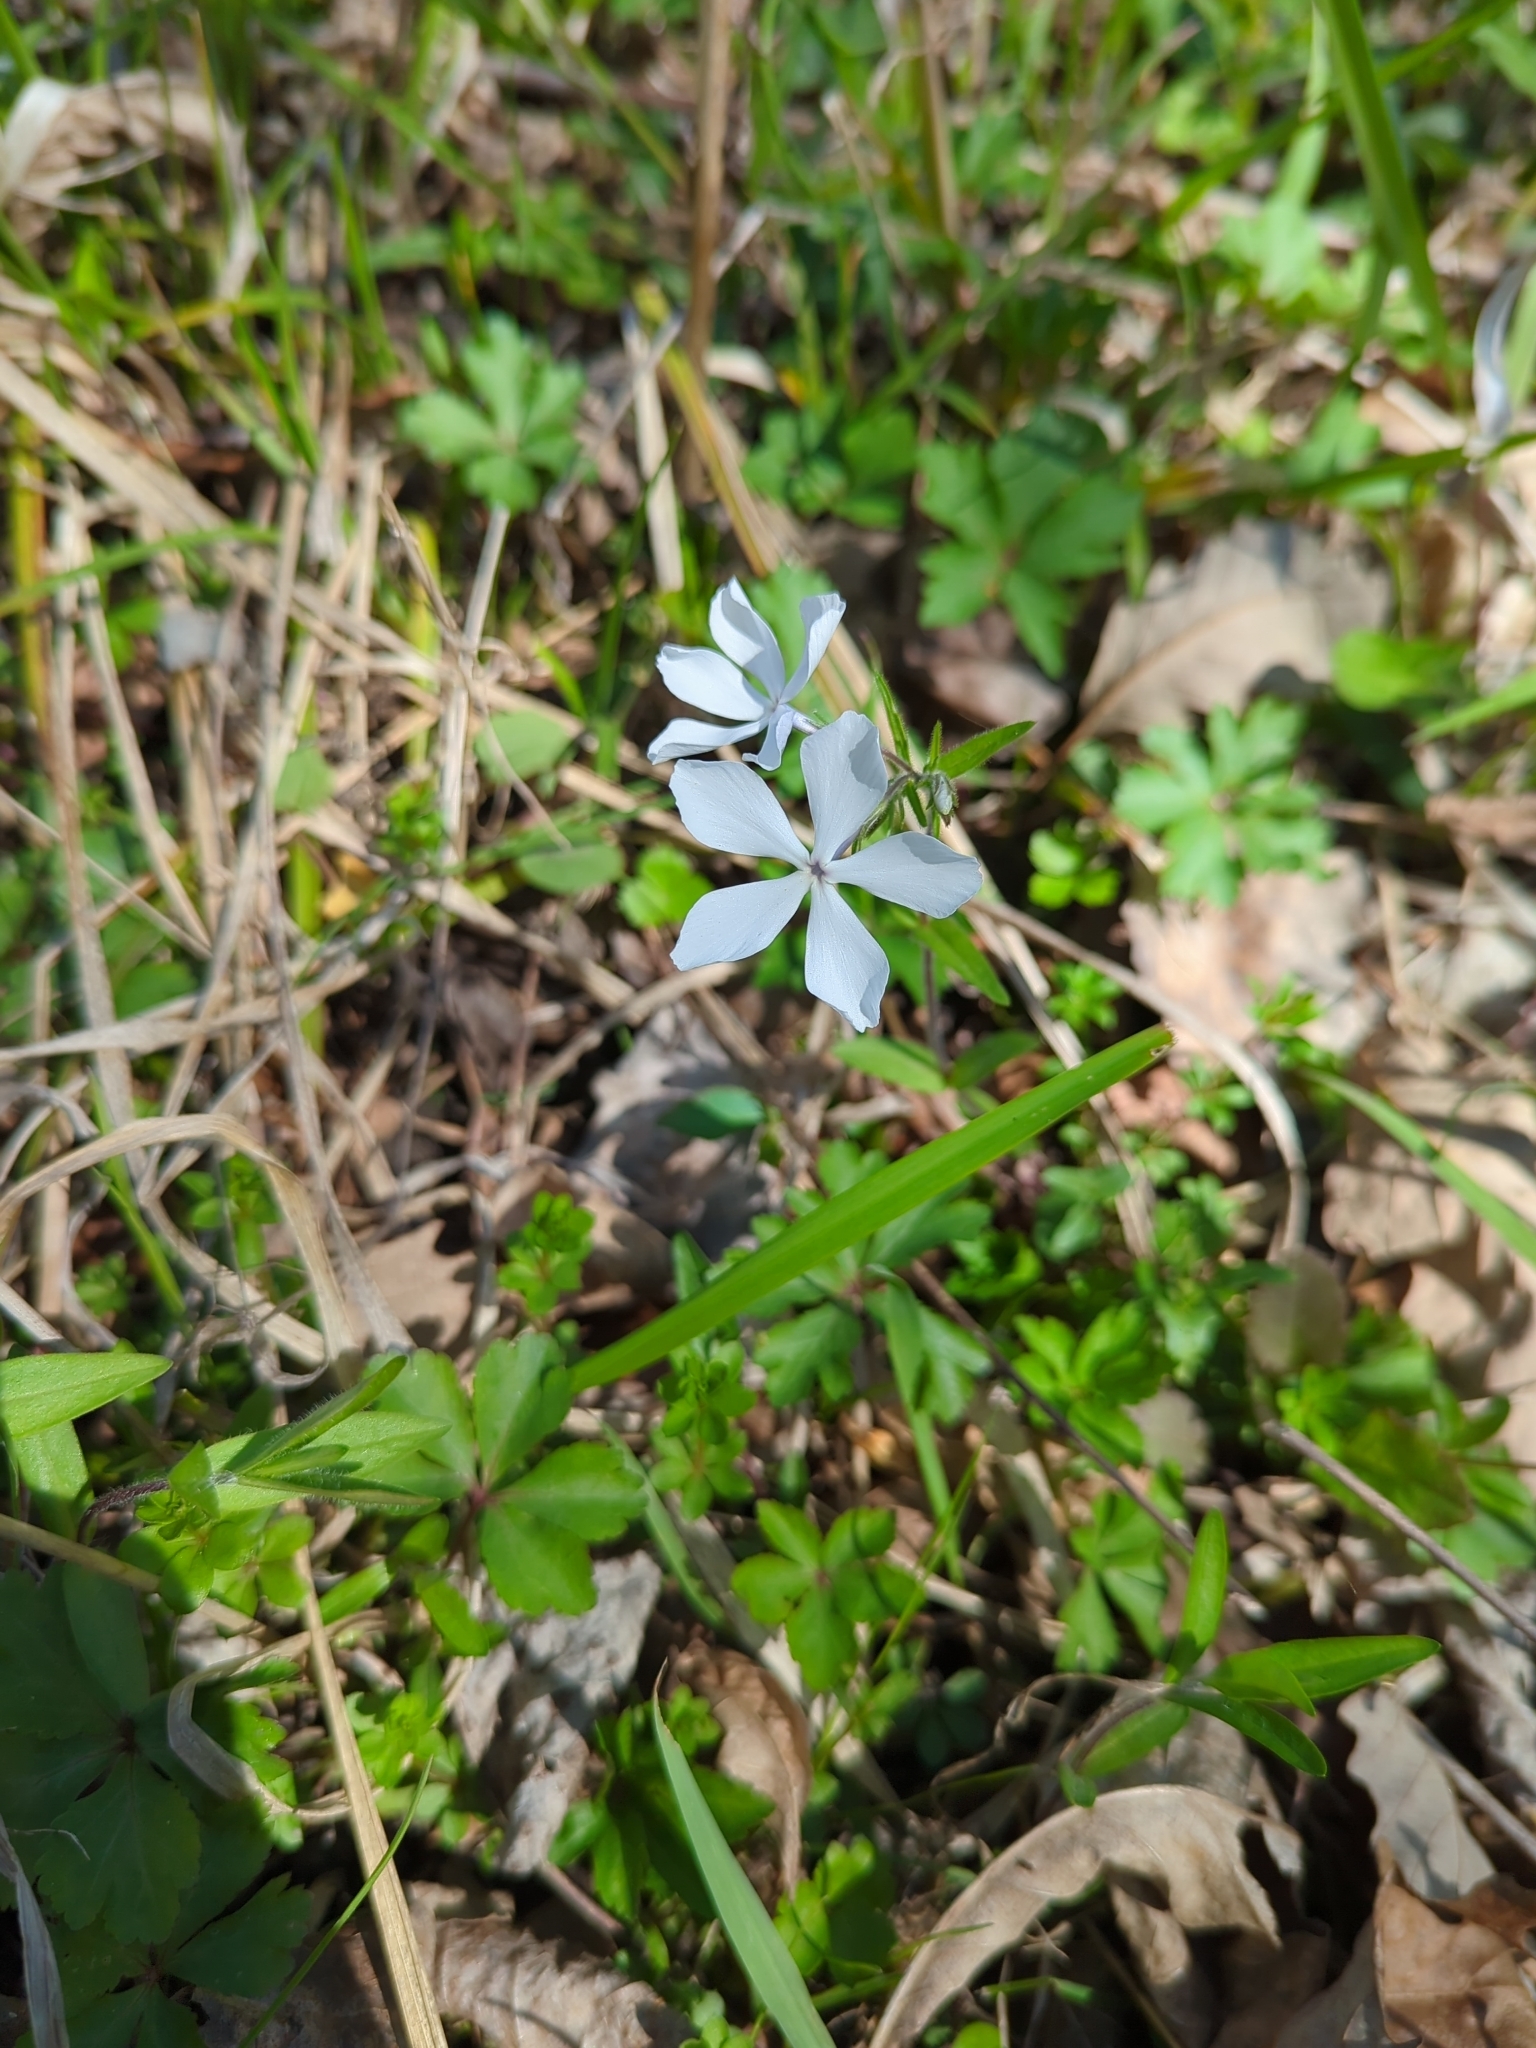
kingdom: Plantae
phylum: Tracheophyta
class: Magnoliopsida
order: Ericales
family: Polemoniaceae
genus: Phlox
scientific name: Phlox divaricata
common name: Blue phlox
